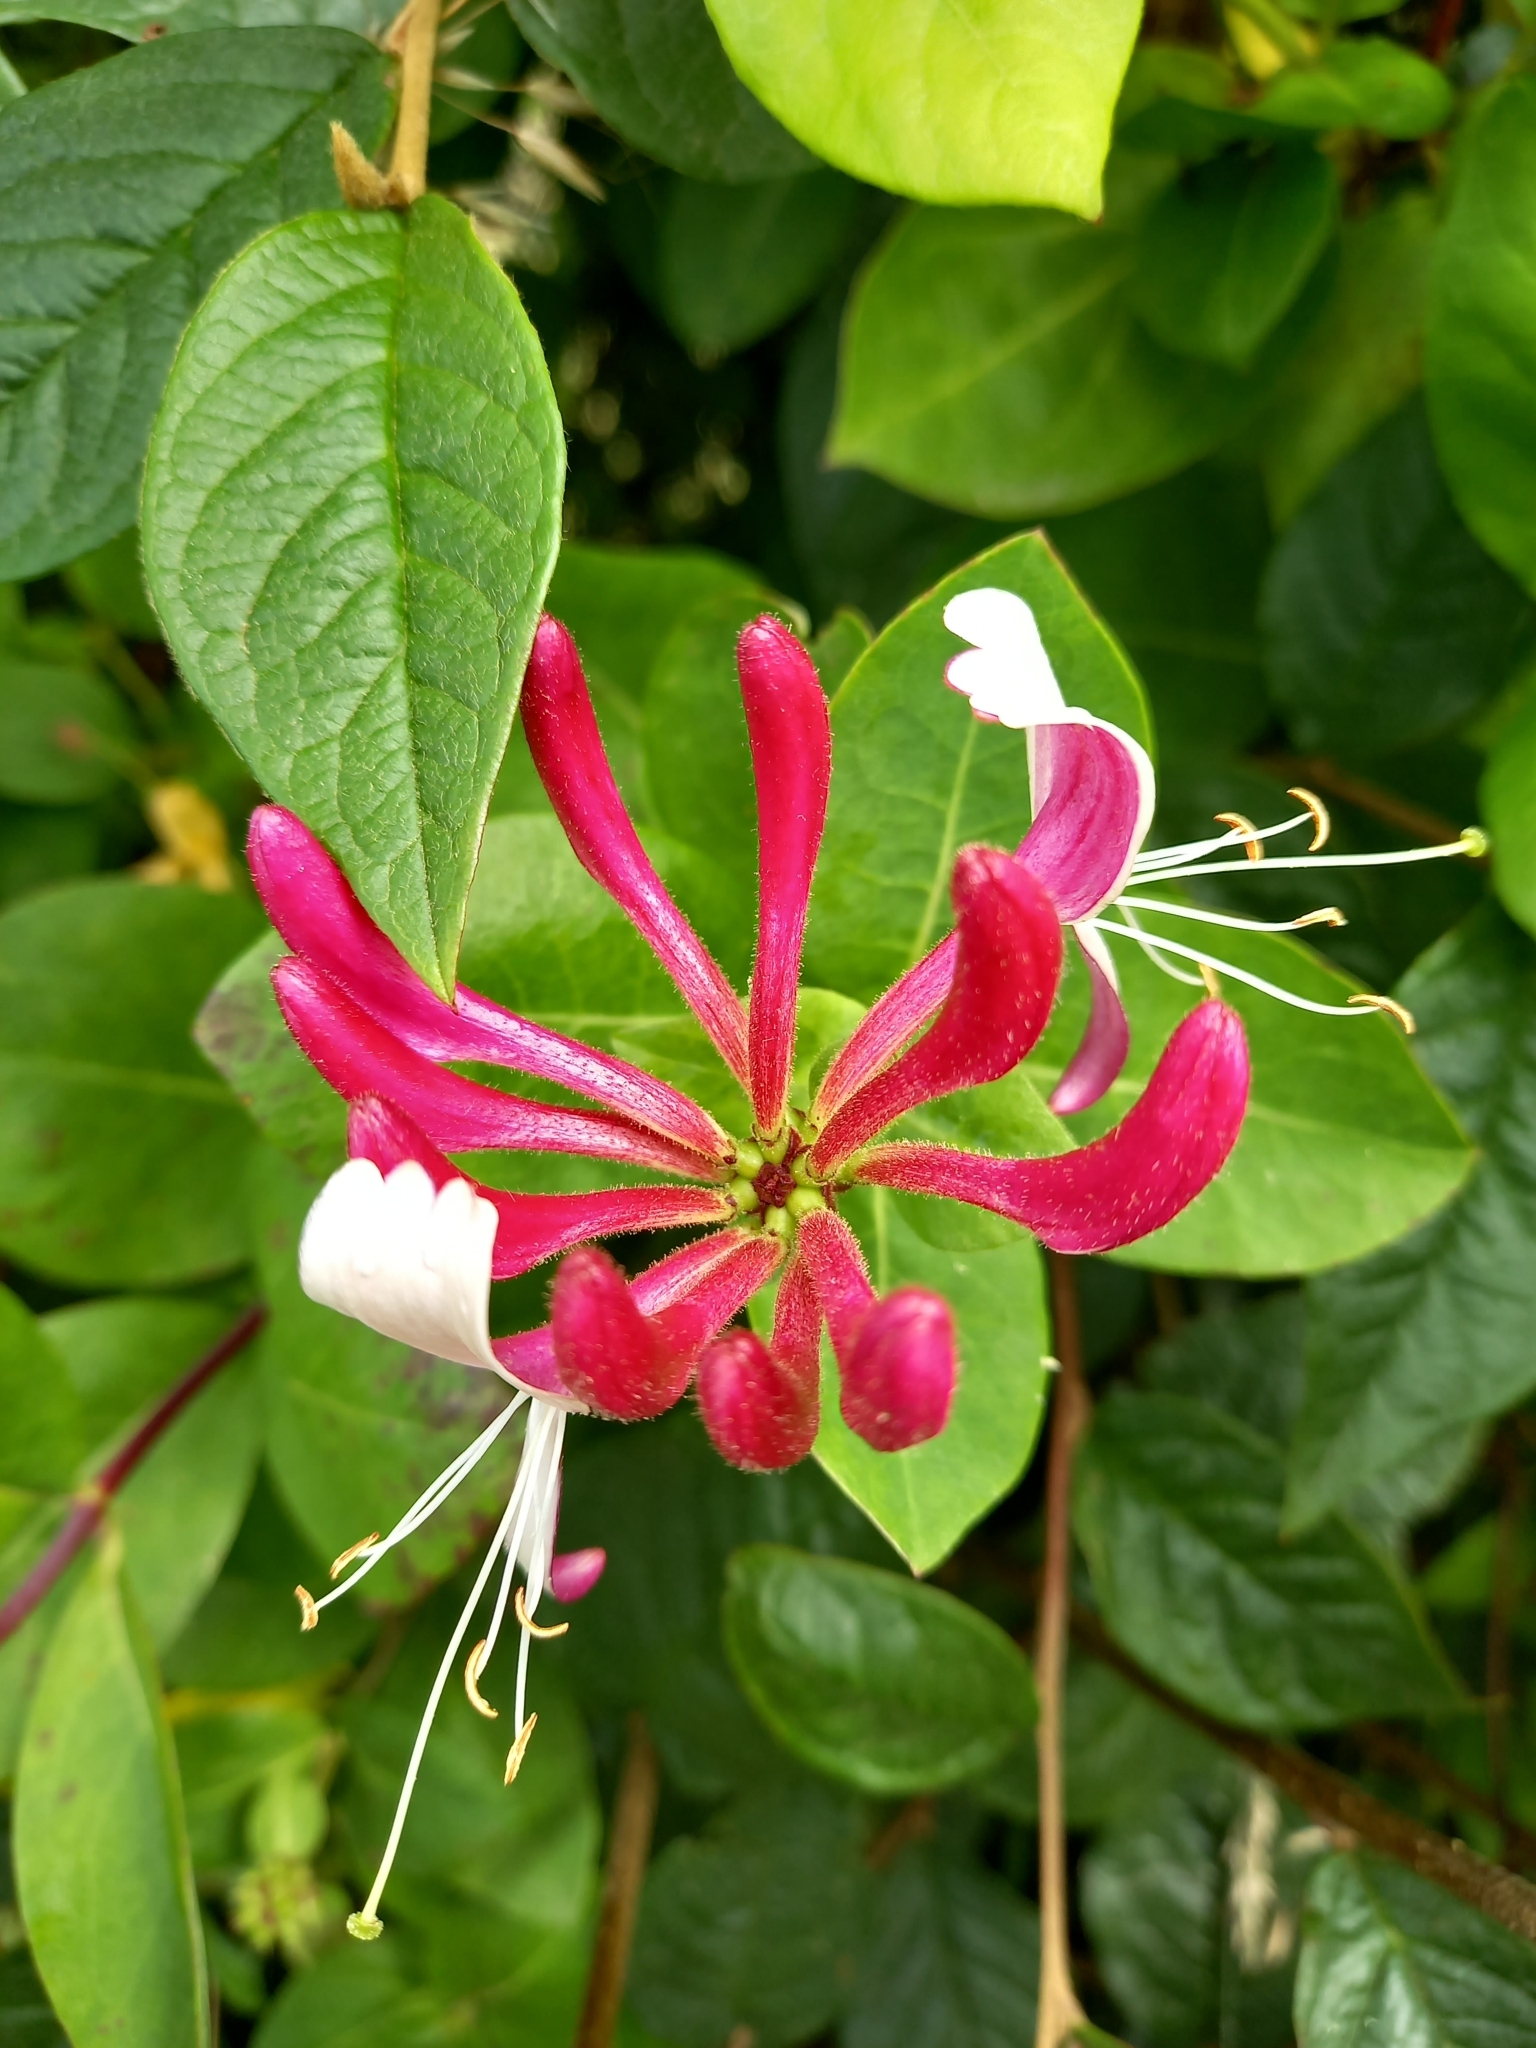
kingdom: Plantae
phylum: Tracheophyta
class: Magnoliopsida
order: Dipsacales
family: Caprifoliaceae
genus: Lonicera
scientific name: Lonicera periclymenum
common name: European honeysuckle
